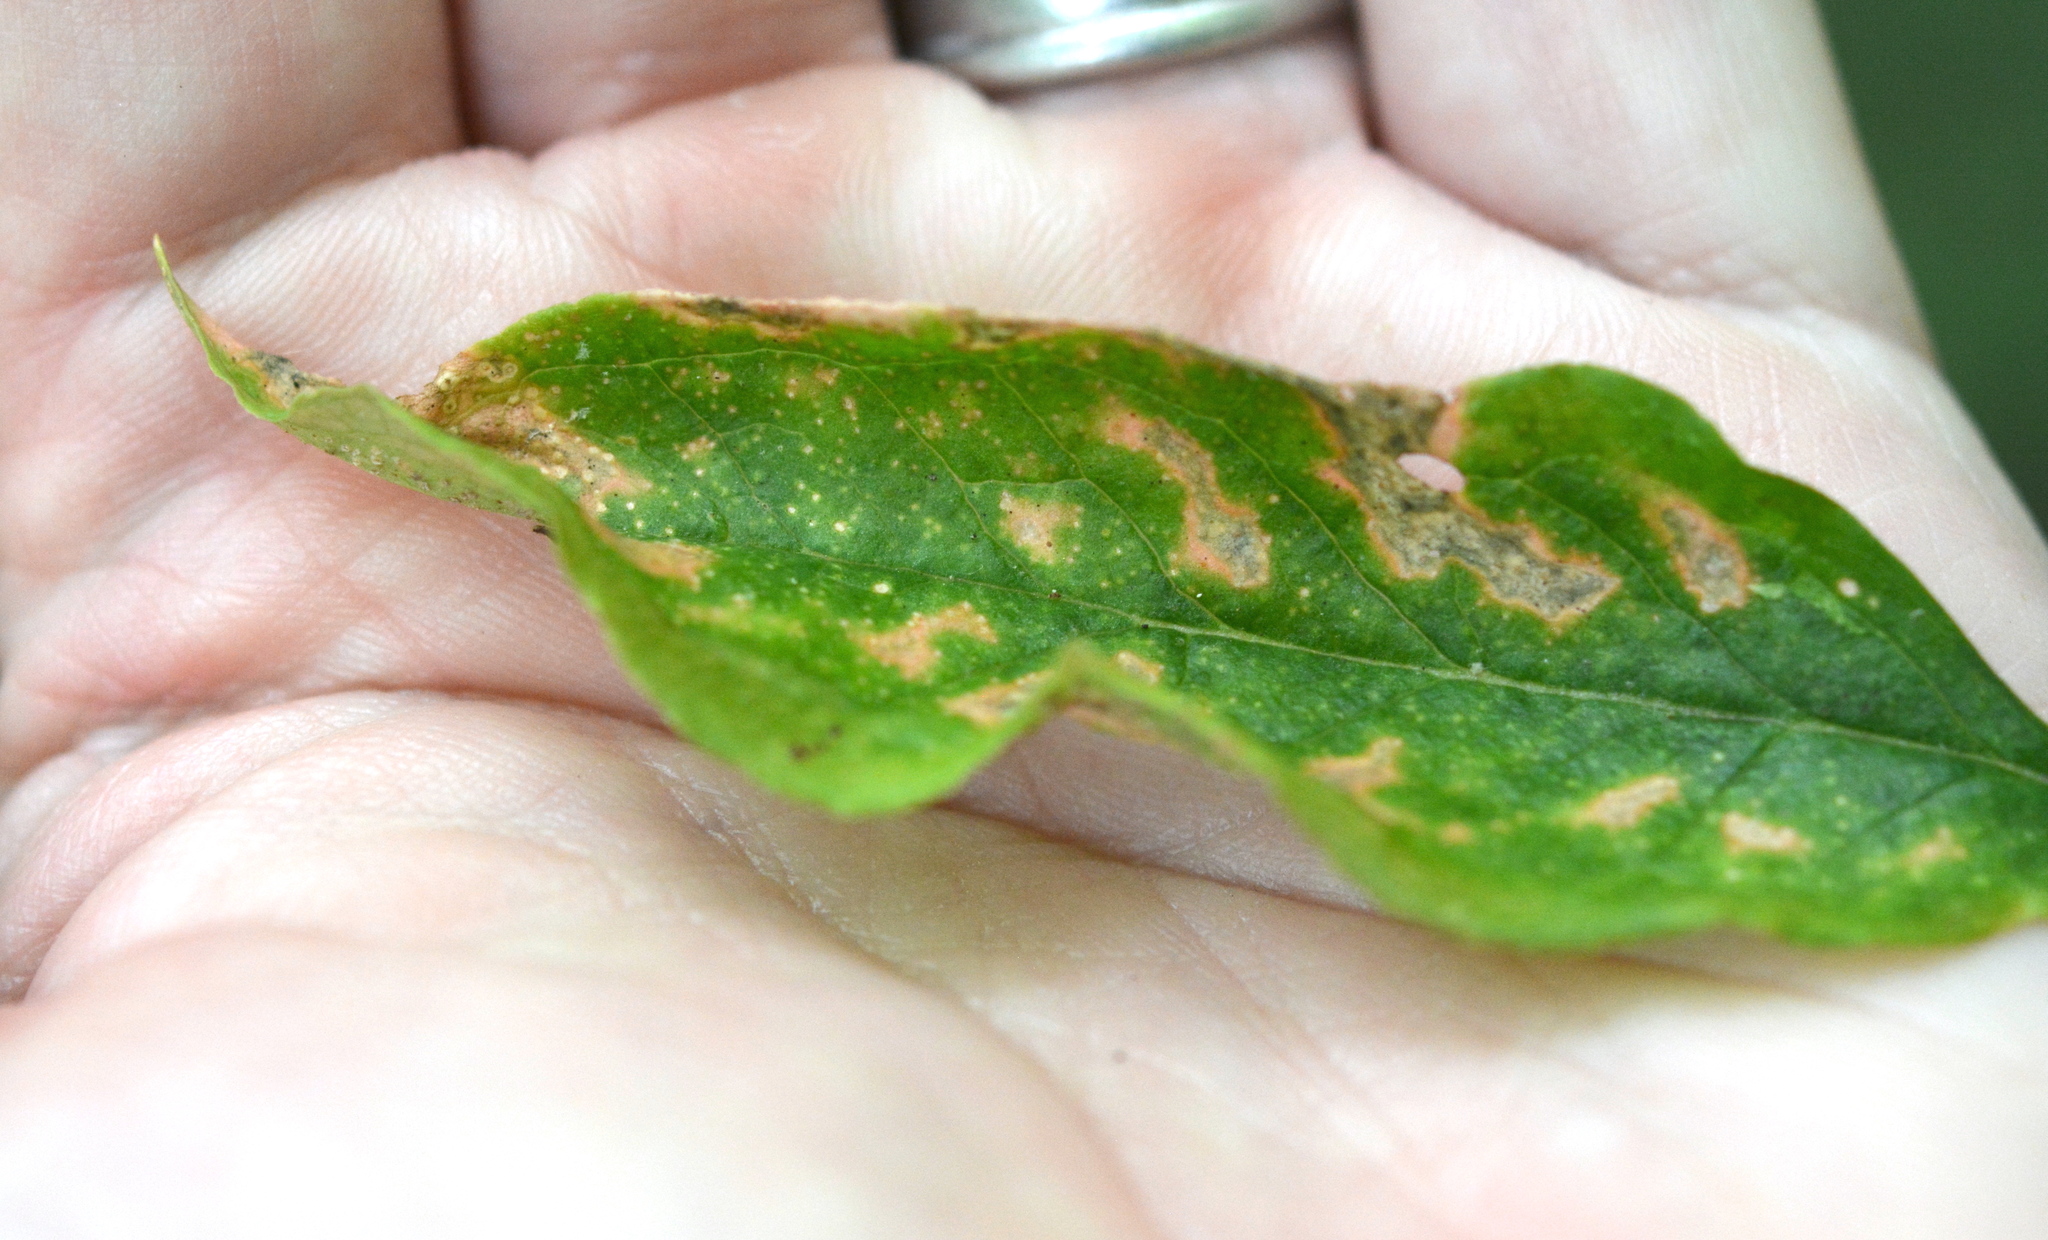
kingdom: Fungi
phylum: Basidiomycota
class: Pucciniomycetes
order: Pucciniales
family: Pucciniaceae
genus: Uromyces
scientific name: Uromyces ari-triphylli
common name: Jack-in-the-pulpit rust
